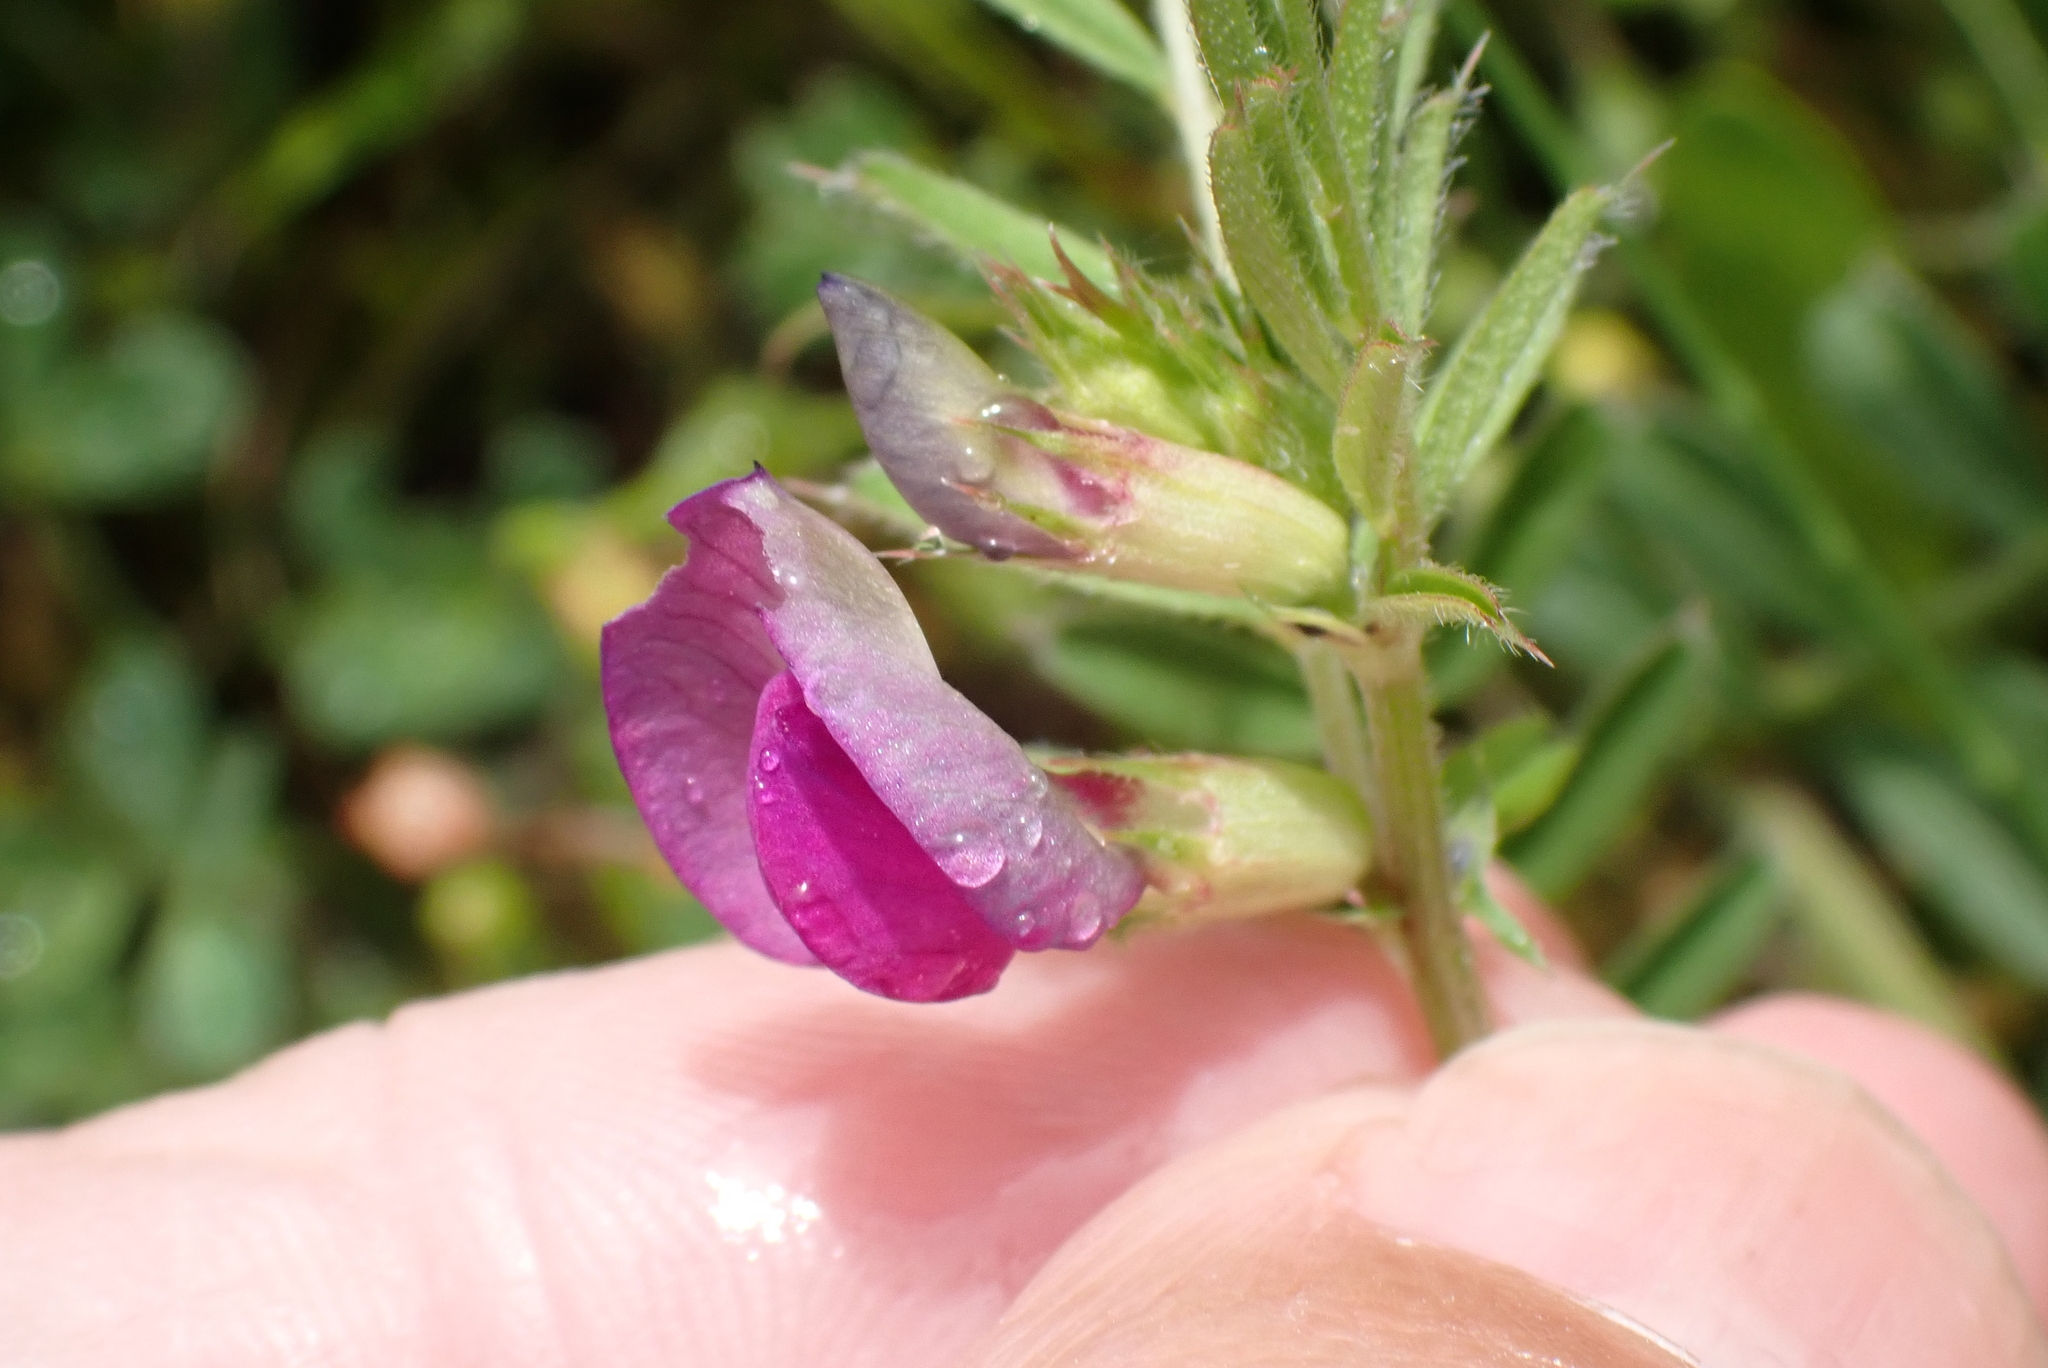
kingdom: Plantae
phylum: Tracheophyta
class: Magnoliopsida
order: Fabales
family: Fabaceae
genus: Vicia
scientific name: Vicia sativa
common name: Garden vetch
